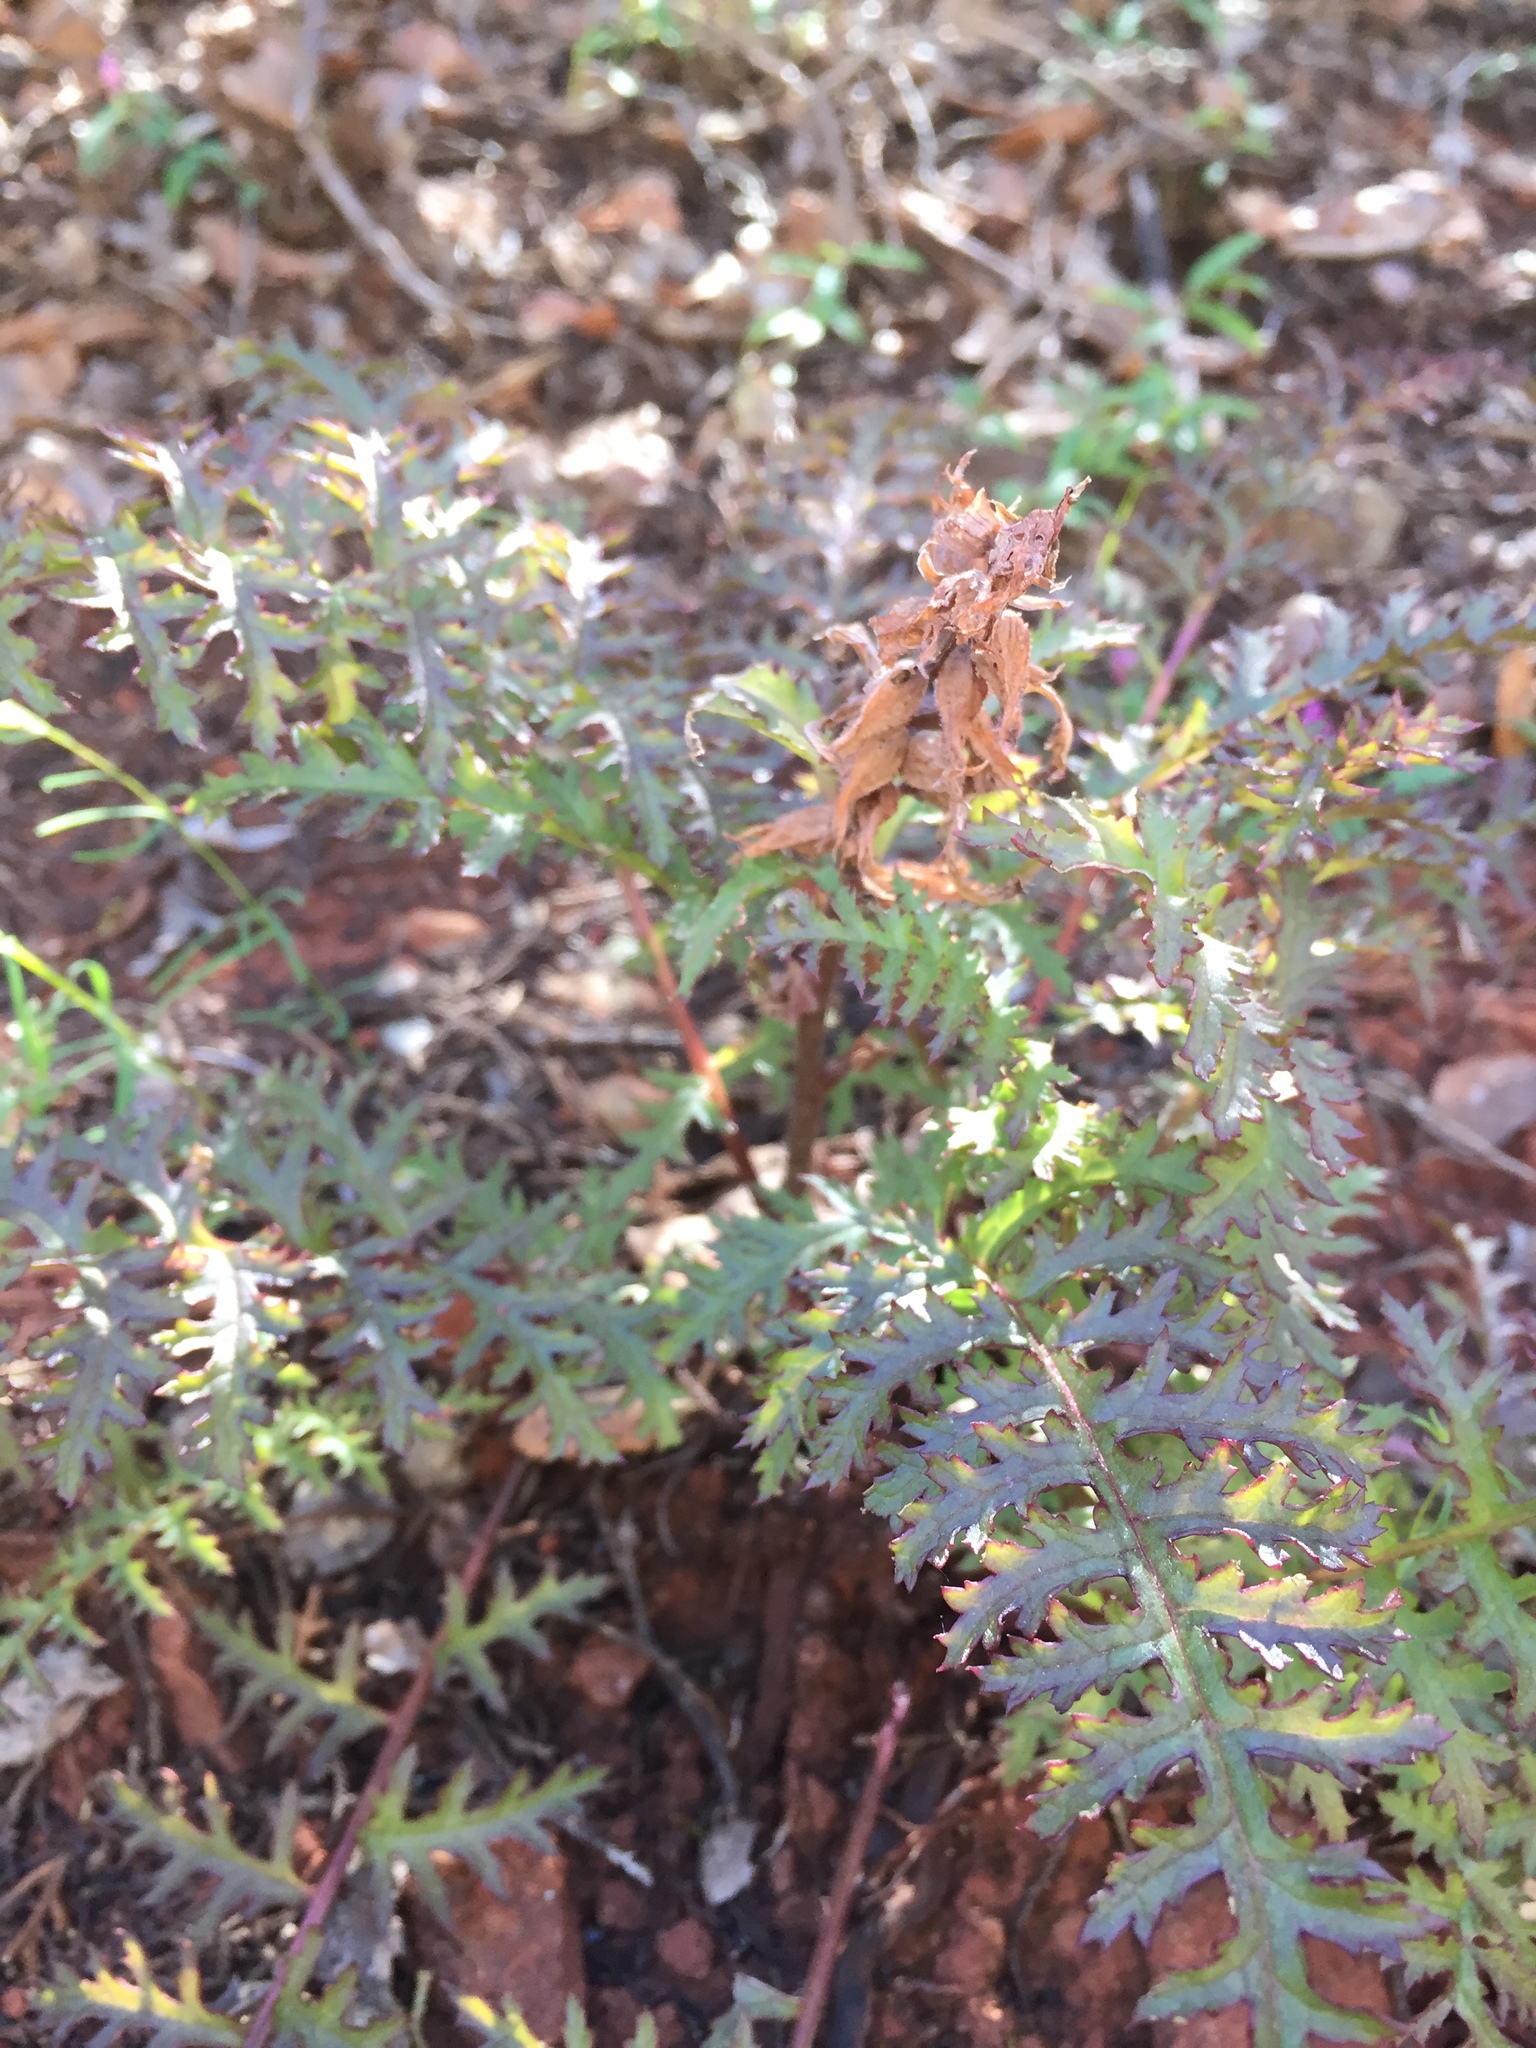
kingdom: Plantae
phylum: Tracheophyta
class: Magnoliopsida
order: Lamiales
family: Orobanchaceae
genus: Pedicularis
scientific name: Pedicularis densiflora
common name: Indian warrior
